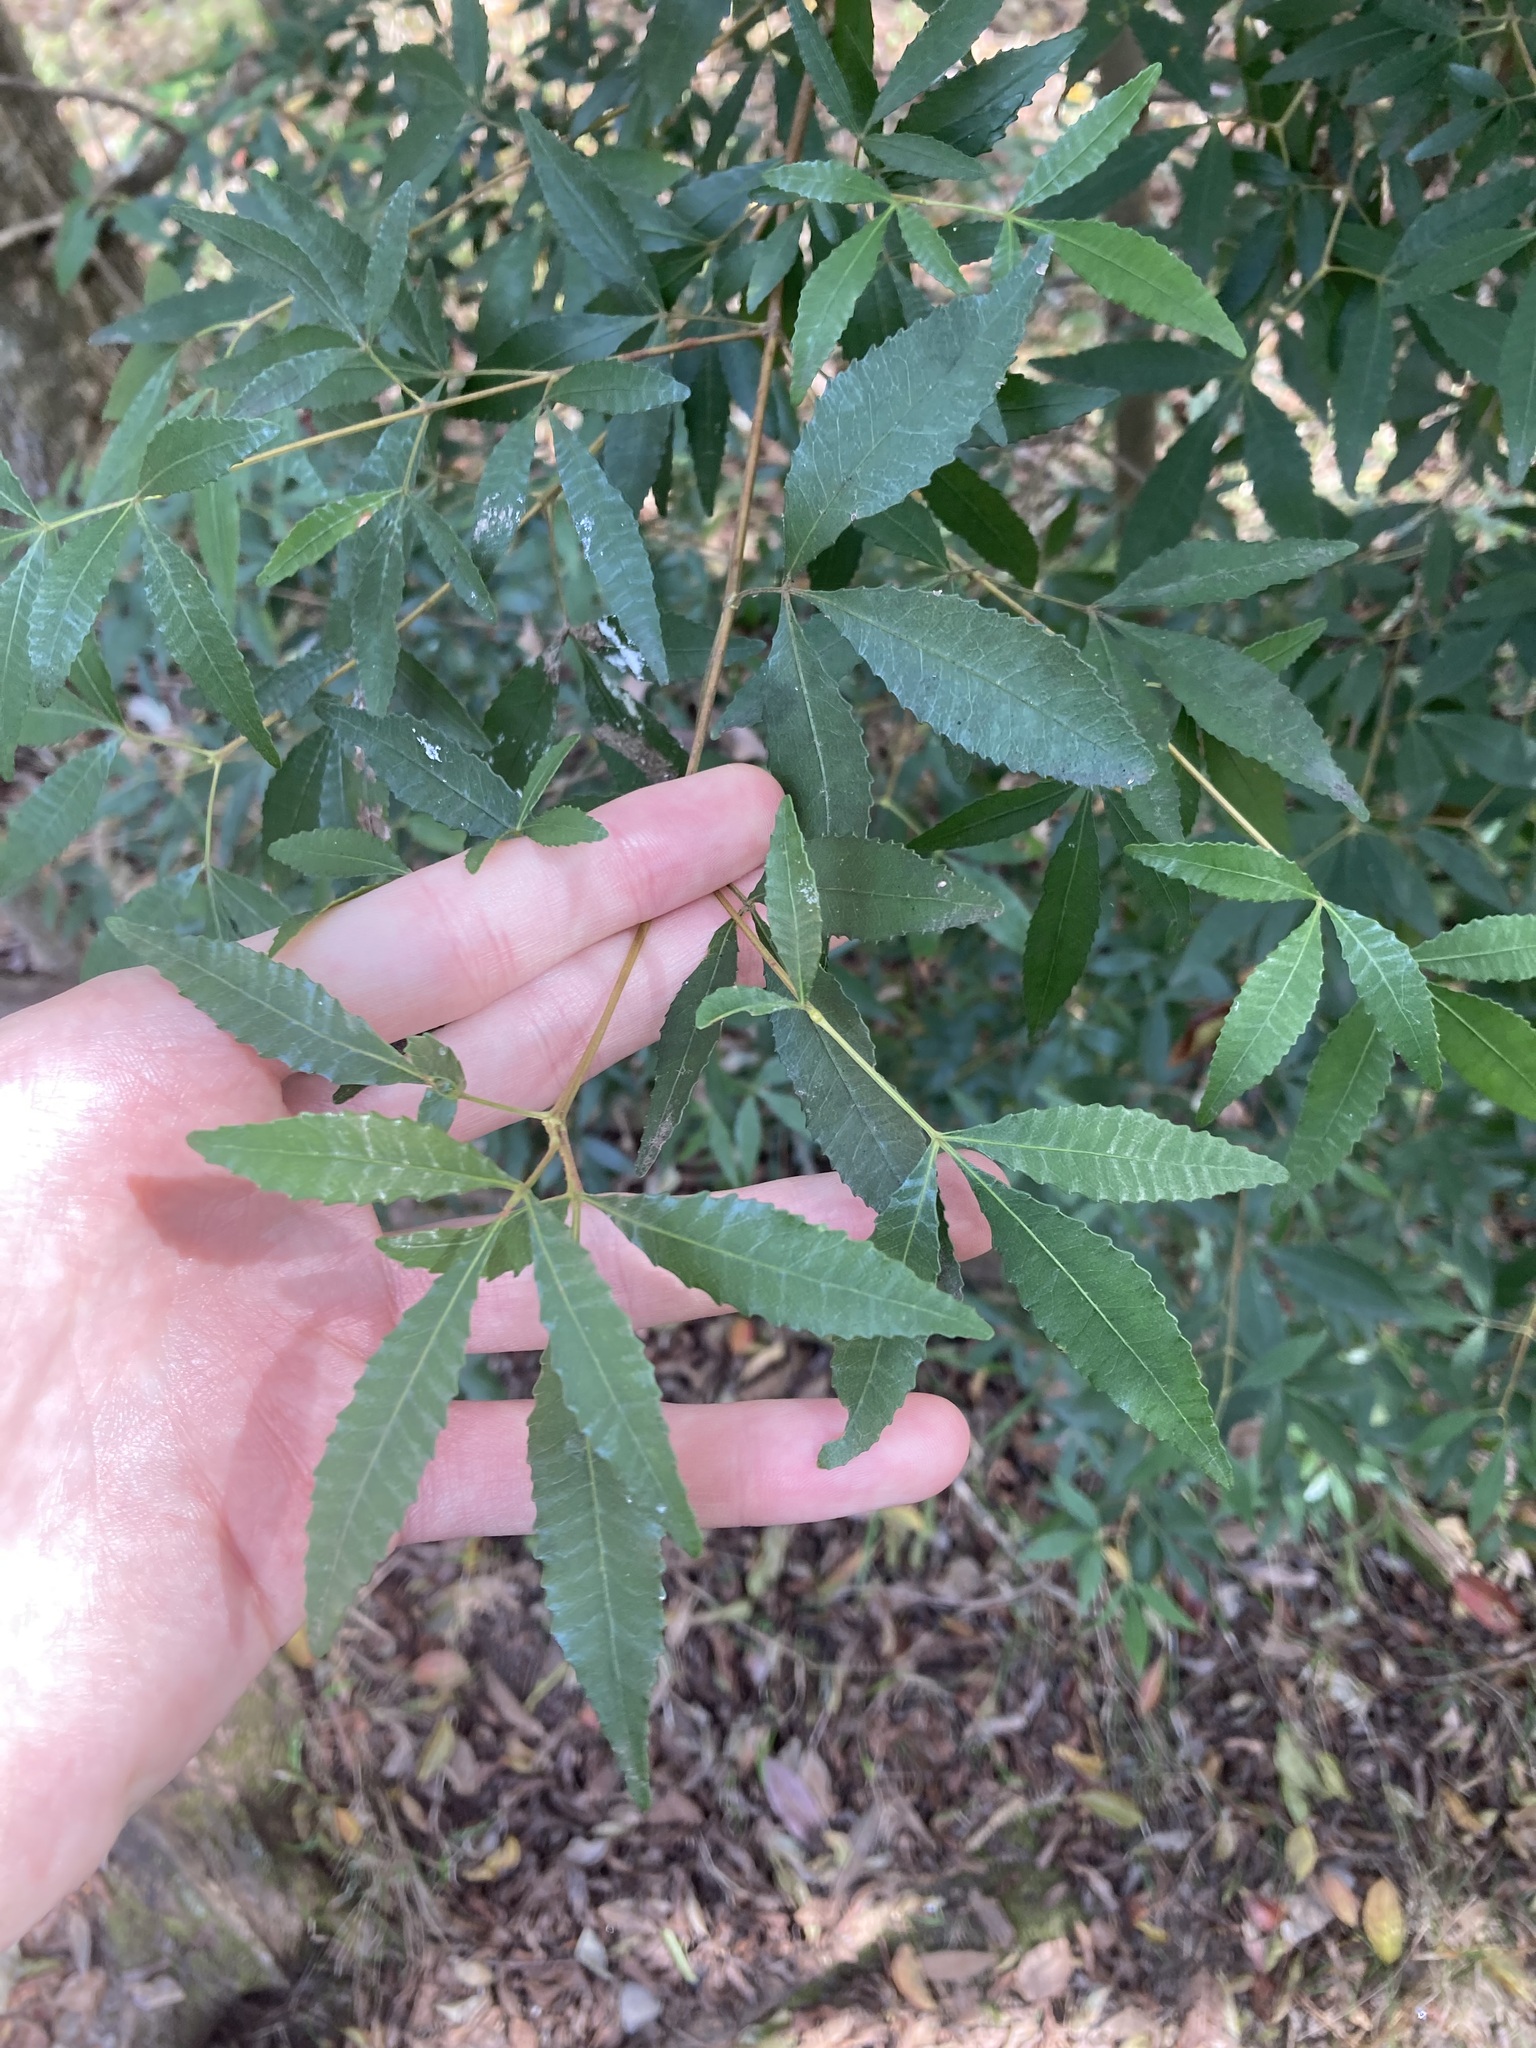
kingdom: Plantae
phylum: Tracheophyta
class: Magnoliopsida
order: Oxalidales
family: Cunoniaceae
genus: Ceratopetalum
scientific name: Ceratopetalum gummiferum
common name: Christmasbush
